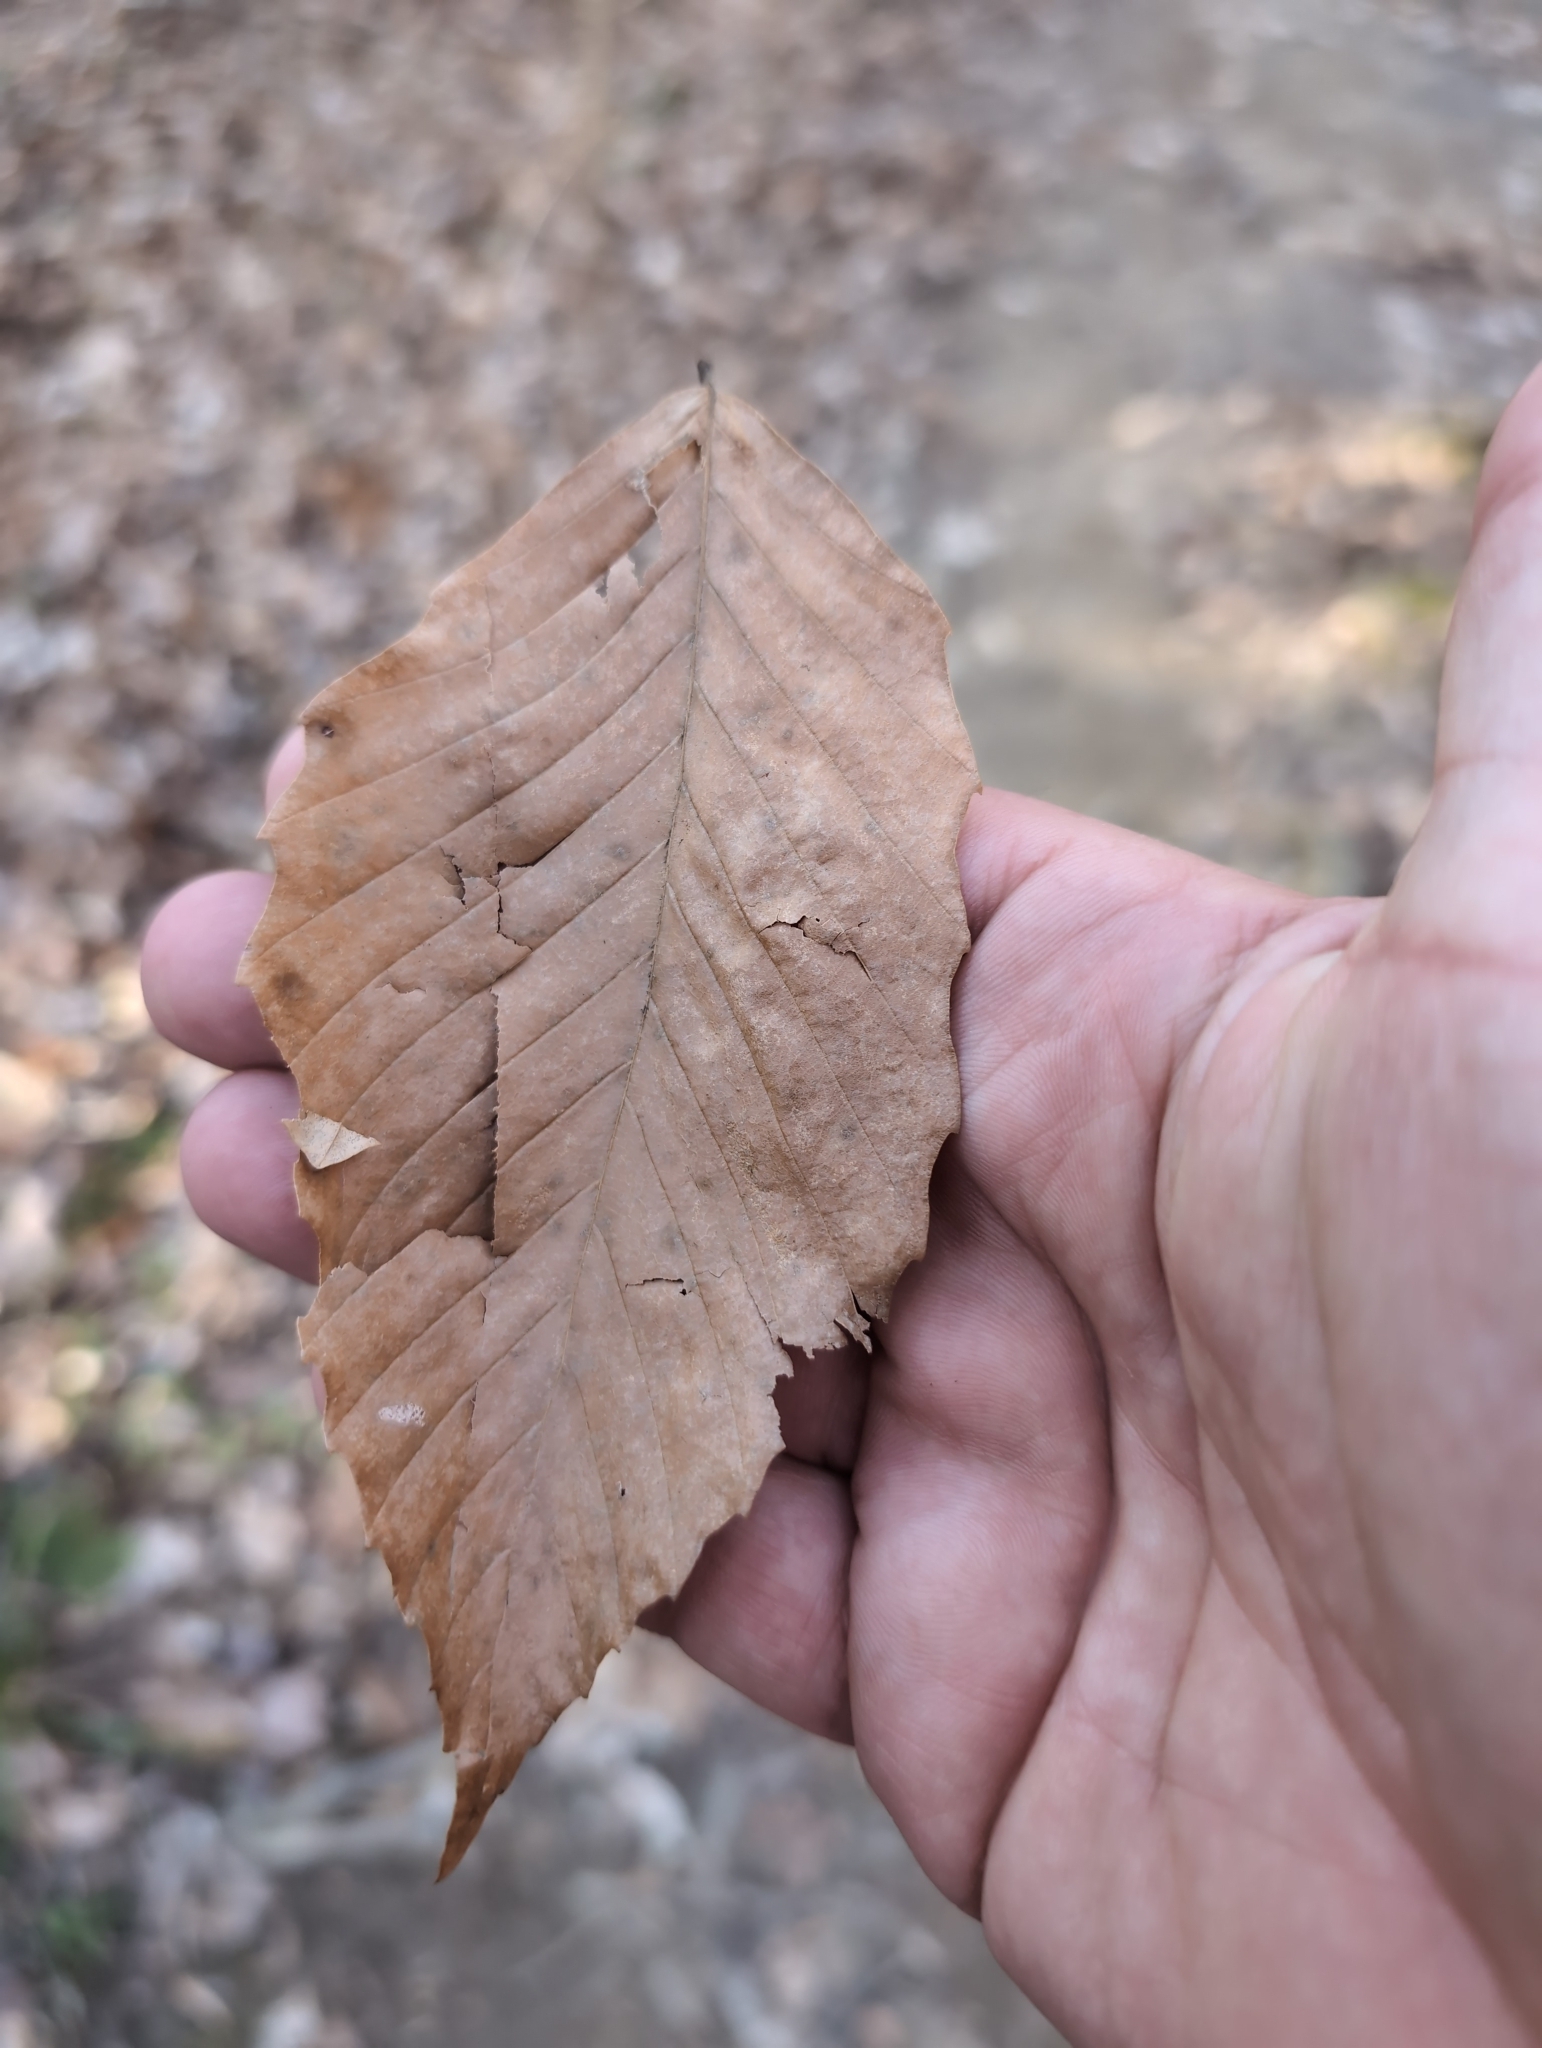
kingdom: Plantae
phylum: Tracheophyta
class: Magnoliopsida
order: Fagales
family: Fagaceae
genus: Fagus
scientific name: Fagus grandifolia
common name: American beech
